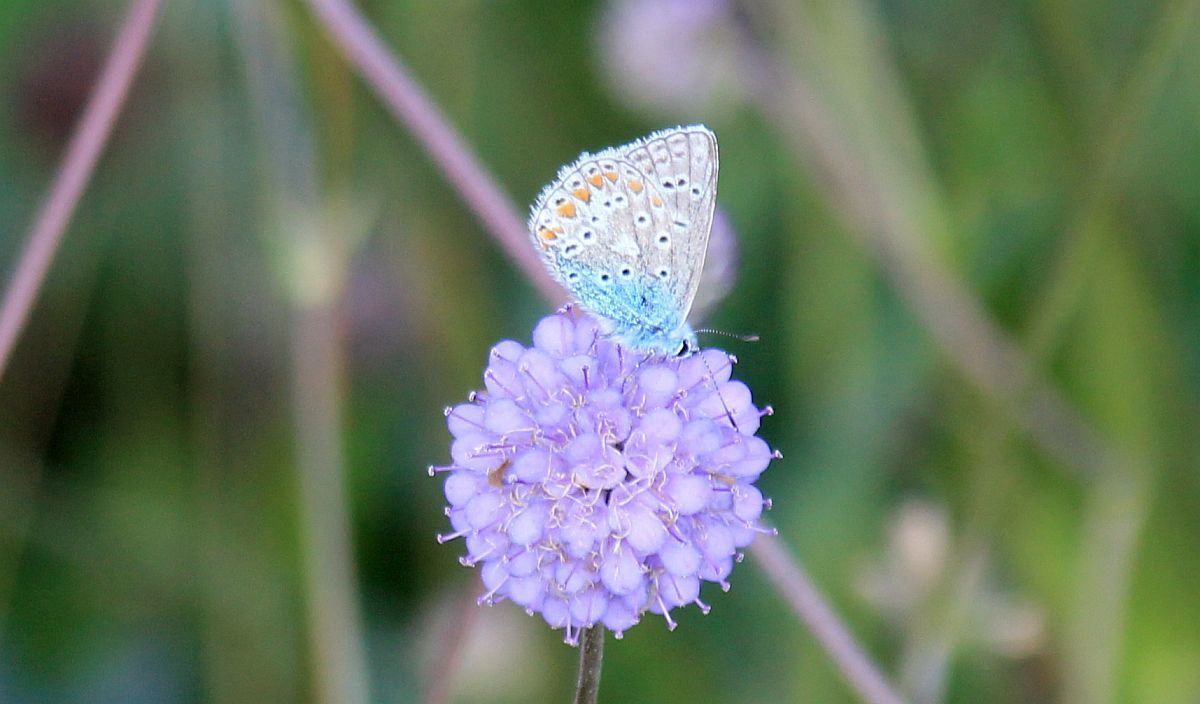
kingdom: Animalia
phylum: Arthropoda
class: Insecta
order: Lepidoptera
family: Lycaenidae
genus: Polyommatus
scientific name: Polyommatus icarus
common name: Common blue
